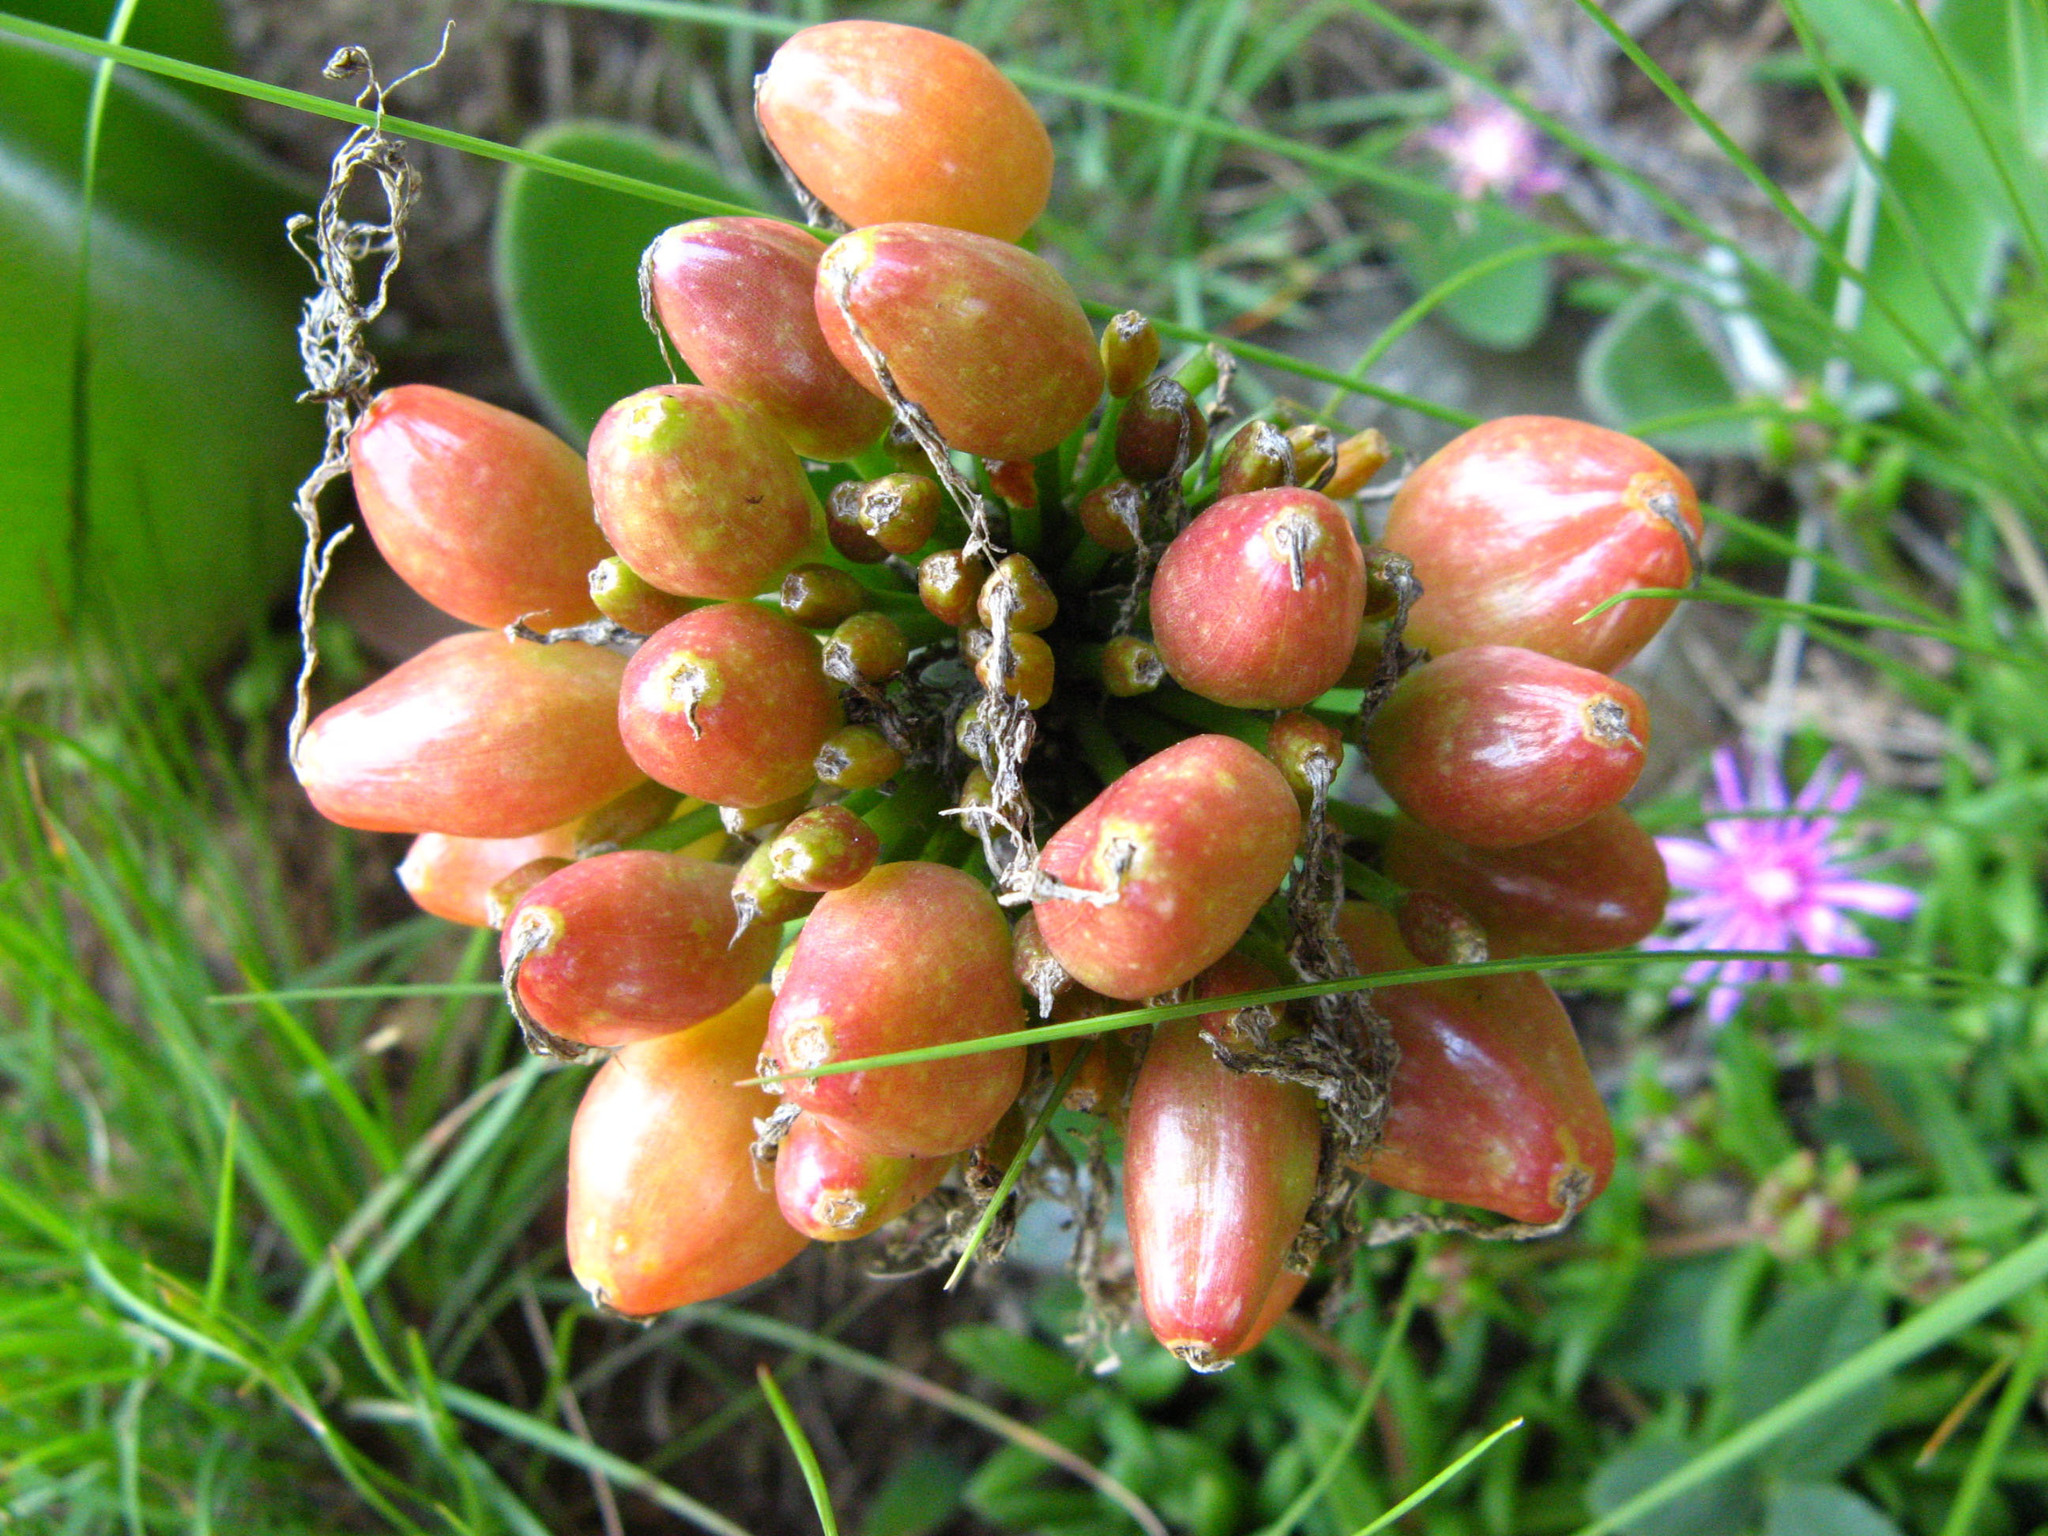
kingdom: Plantae
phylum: Tracheophyta
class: Liliopsida
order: Asparagales
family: Amaryllidaceae
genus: Haemanthus
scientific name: Haemanthus humilis
